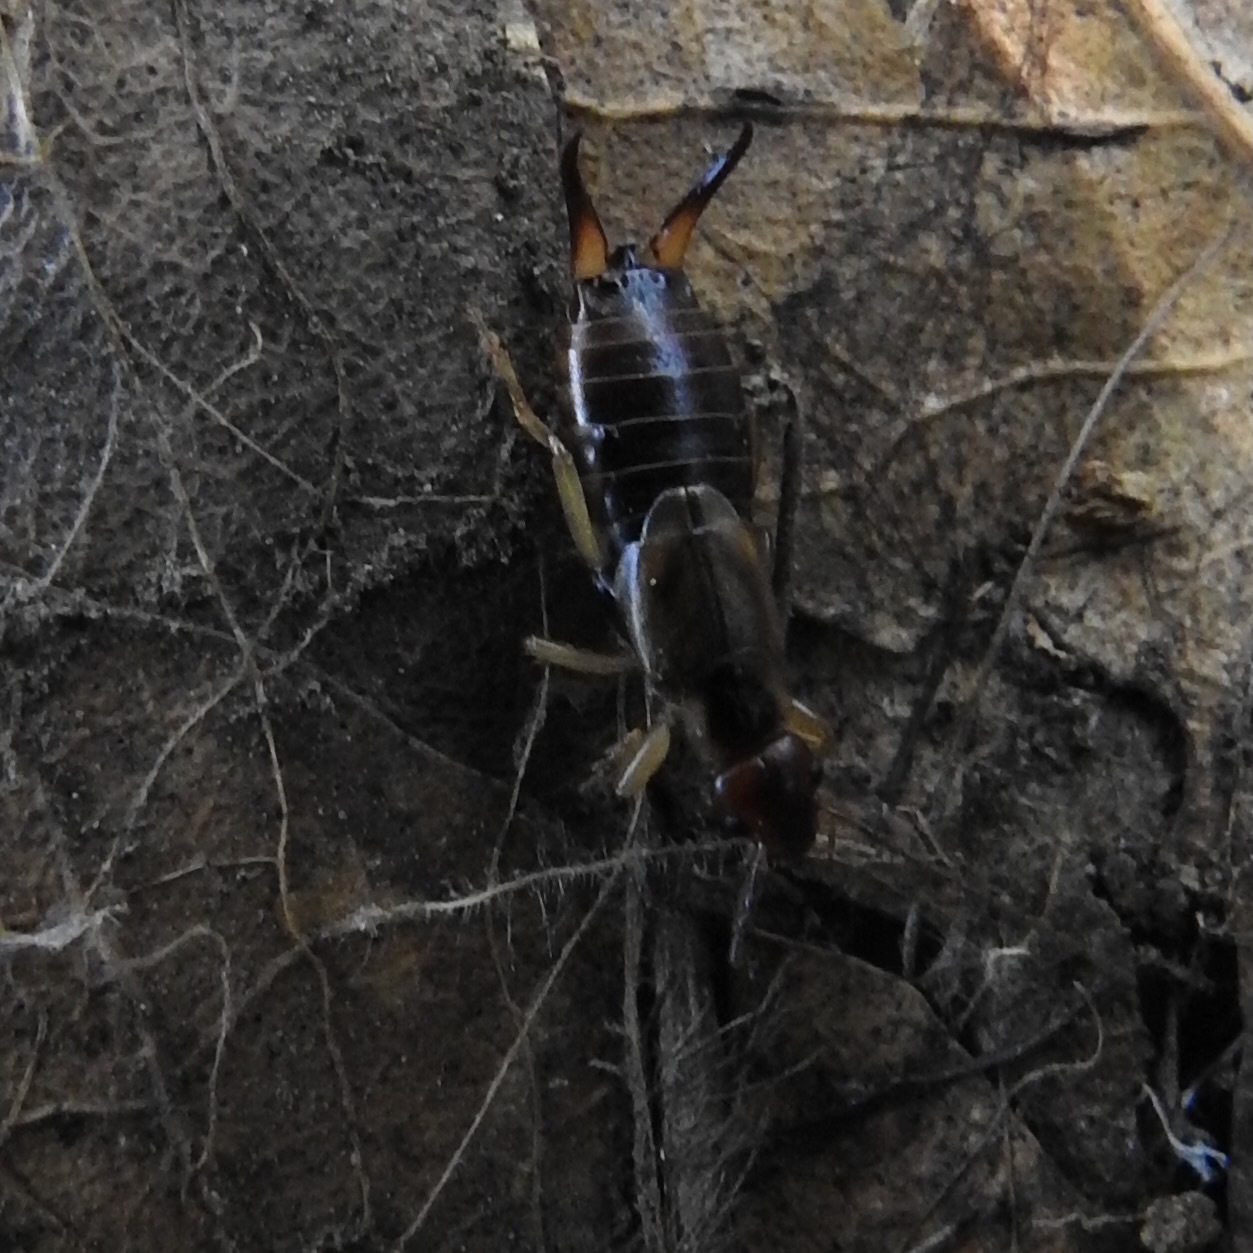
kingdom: Animalia
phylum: Arthropoda
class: Insecta
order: Dermaptera
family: Forficulidae
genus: Forficula
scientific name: Forficula dentata
